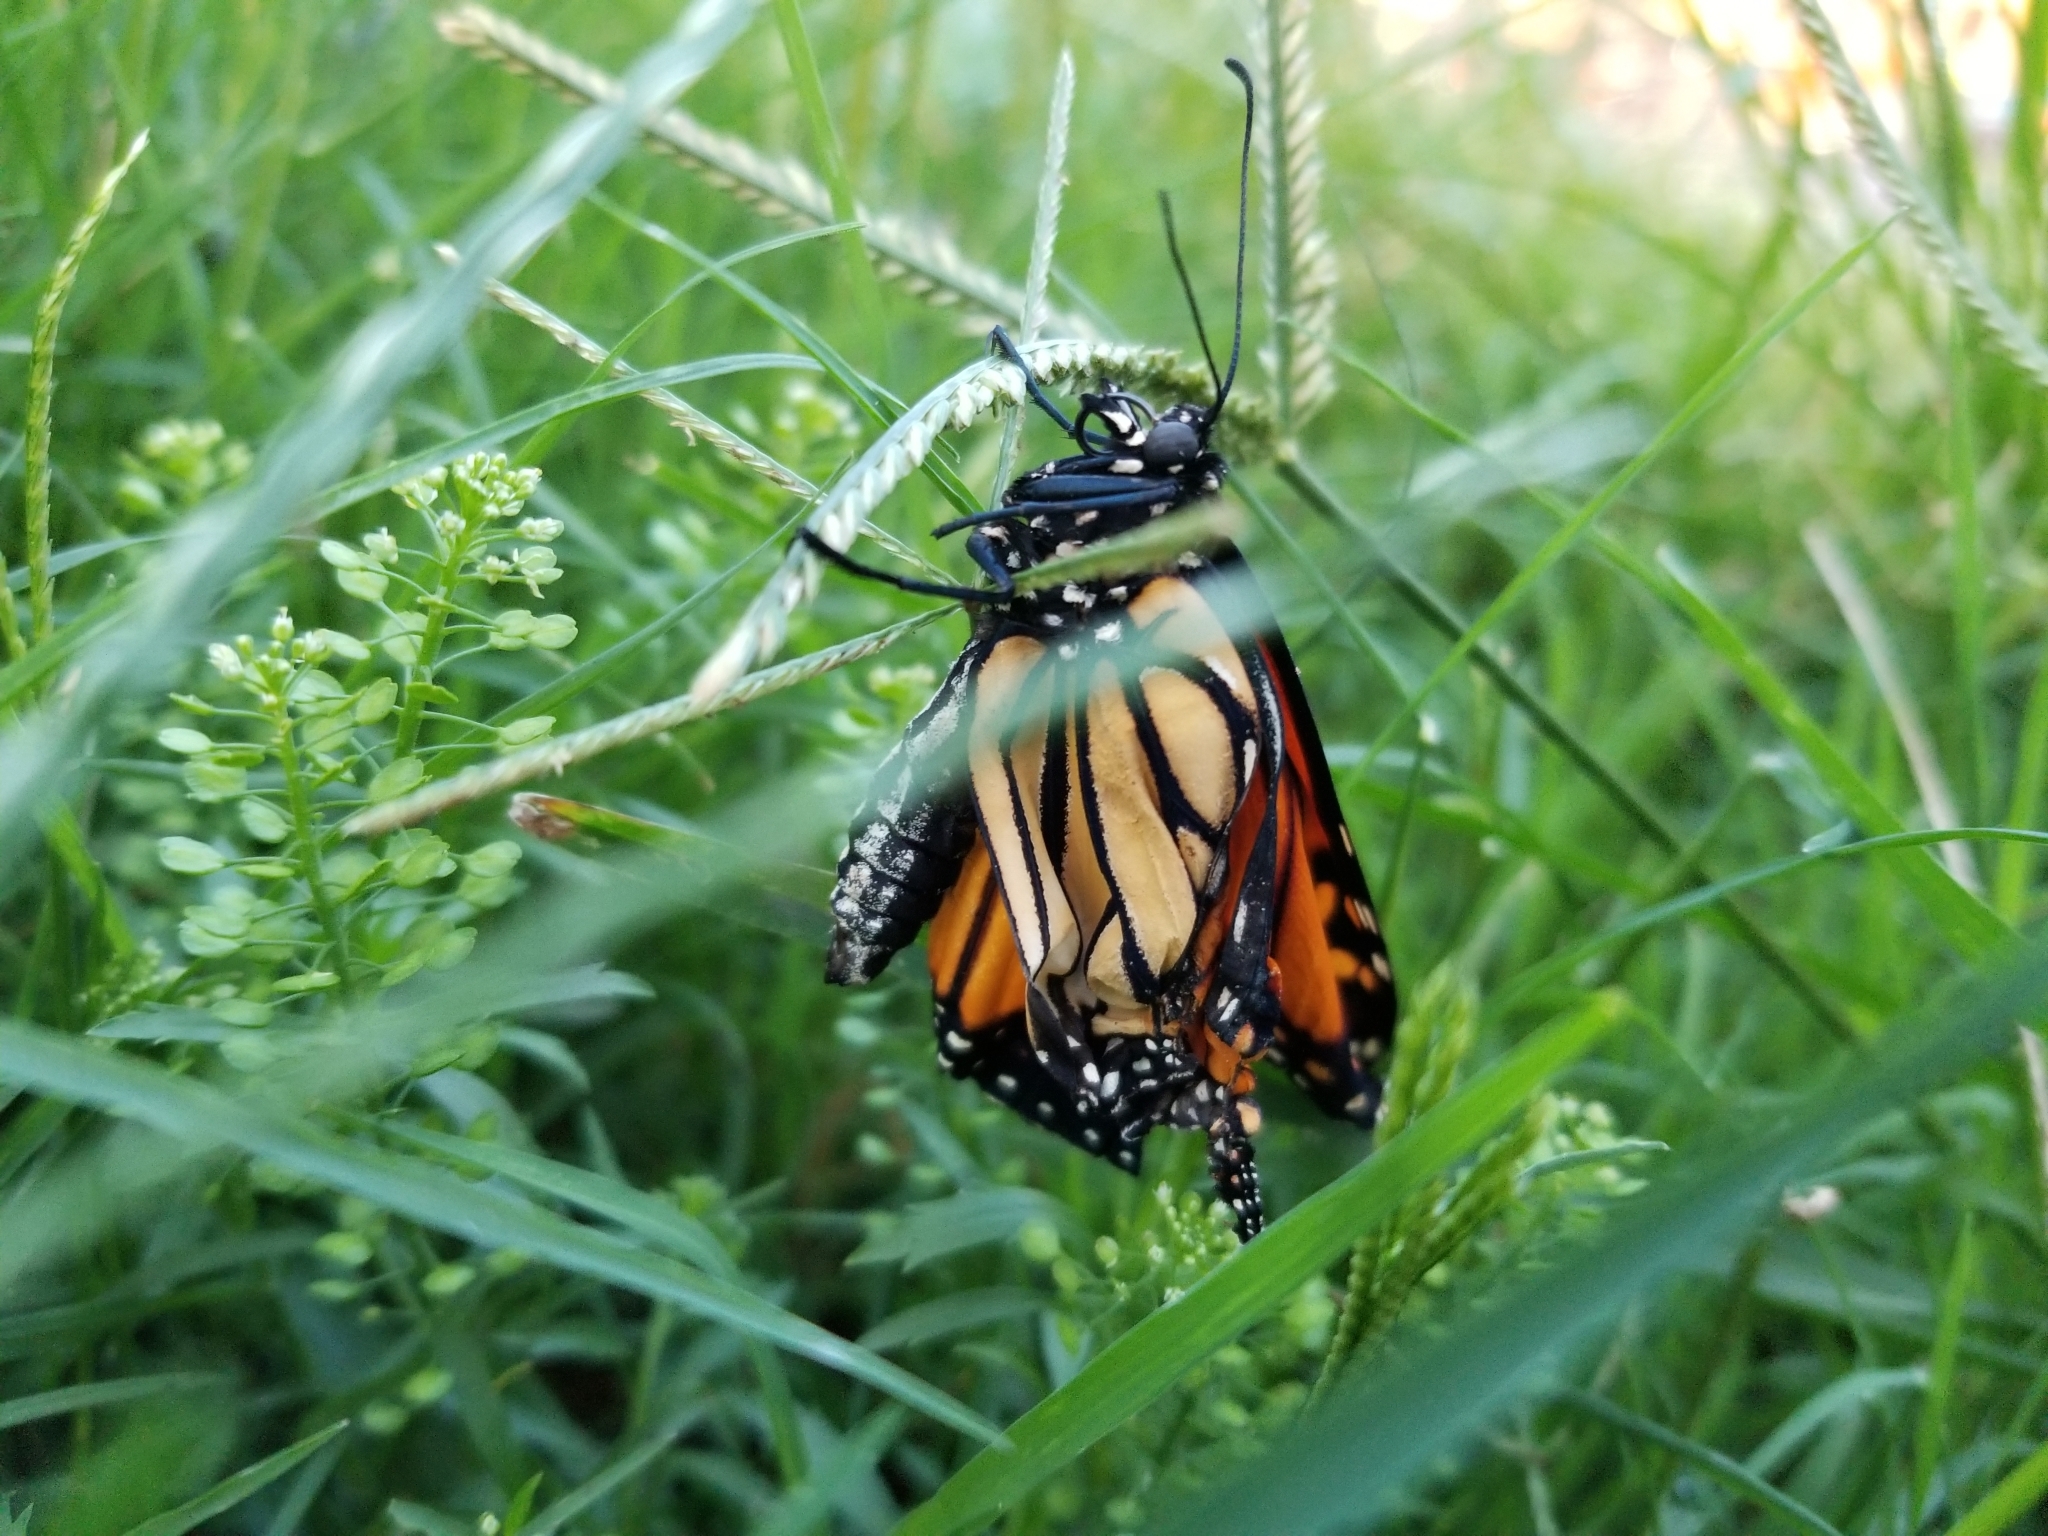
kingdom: Animalia
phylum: Arthropoda
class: Insecta
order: Lepidoptera
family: Nymphalidae
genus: Danaus
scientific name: Danaus plexippus
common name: Monarch
